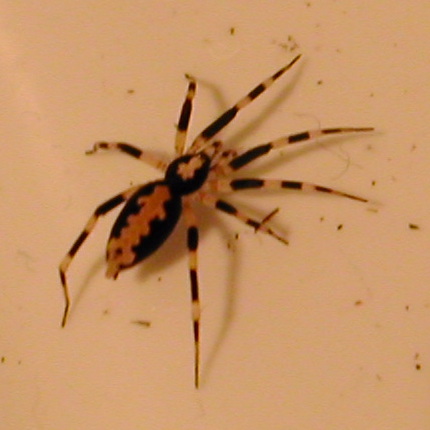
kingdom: Animalia
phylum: Arthropoda
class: Arachnida
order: Araneae
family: Gnaphosidae
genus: Ceryerda
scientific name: Ceryerda cursitans
